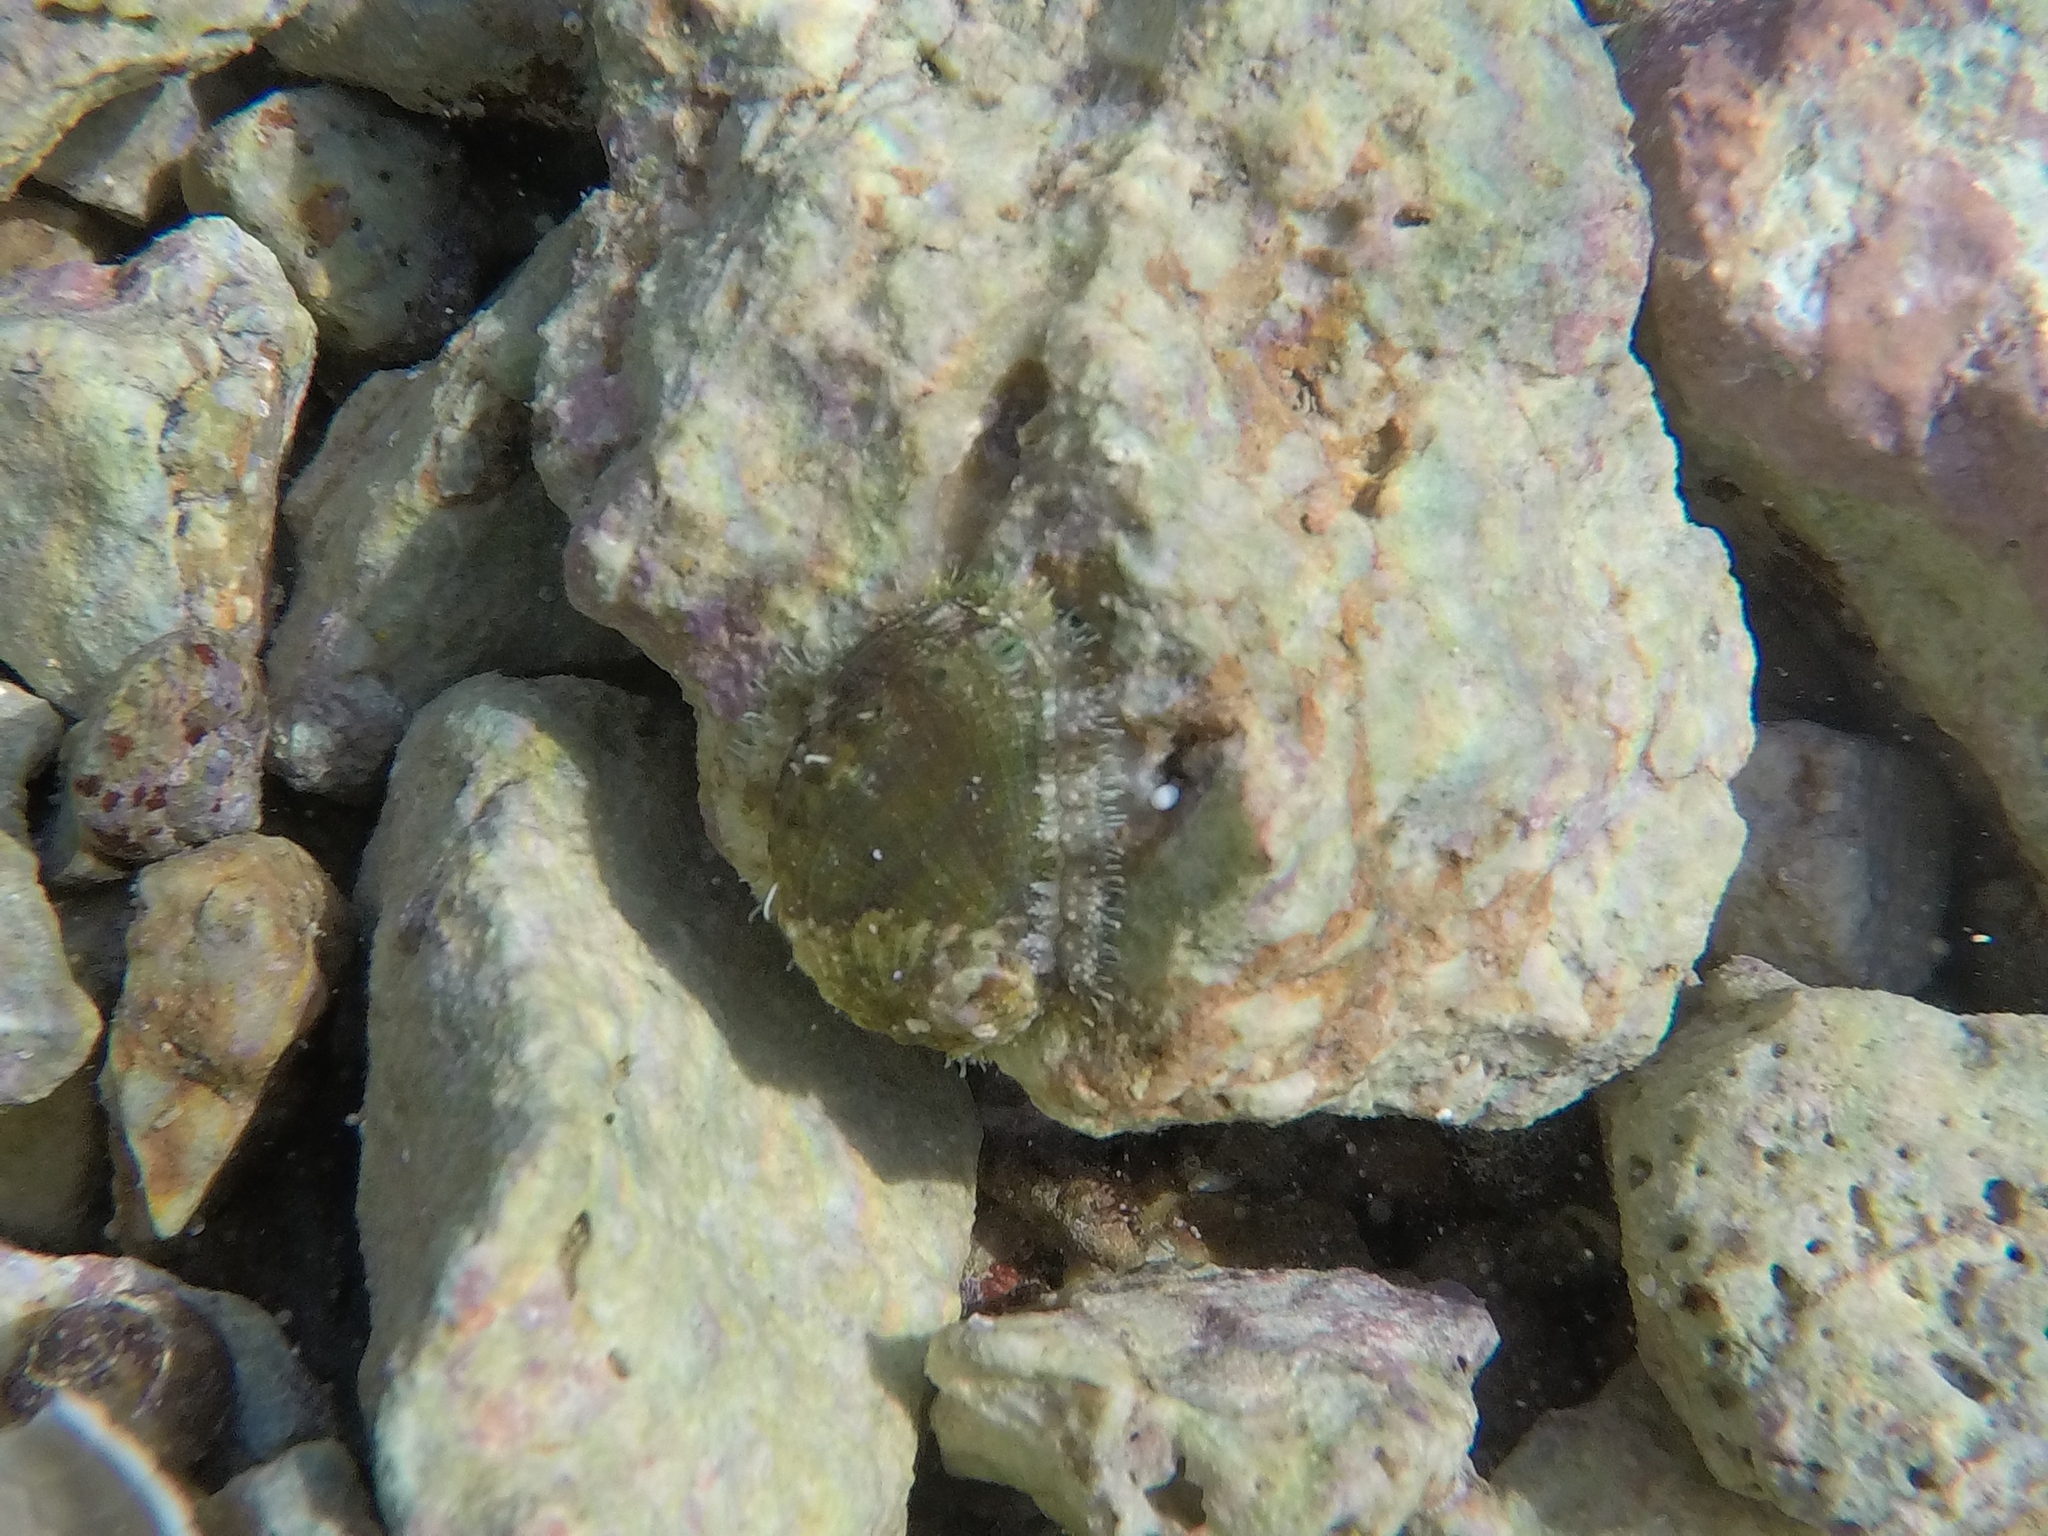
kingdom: Animalia
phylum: Mollusca
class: Gastropoda
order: Lepetellida
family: Haliotidae
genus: Haliotis
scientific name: Haliotis tuberculata
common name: Green ormer
